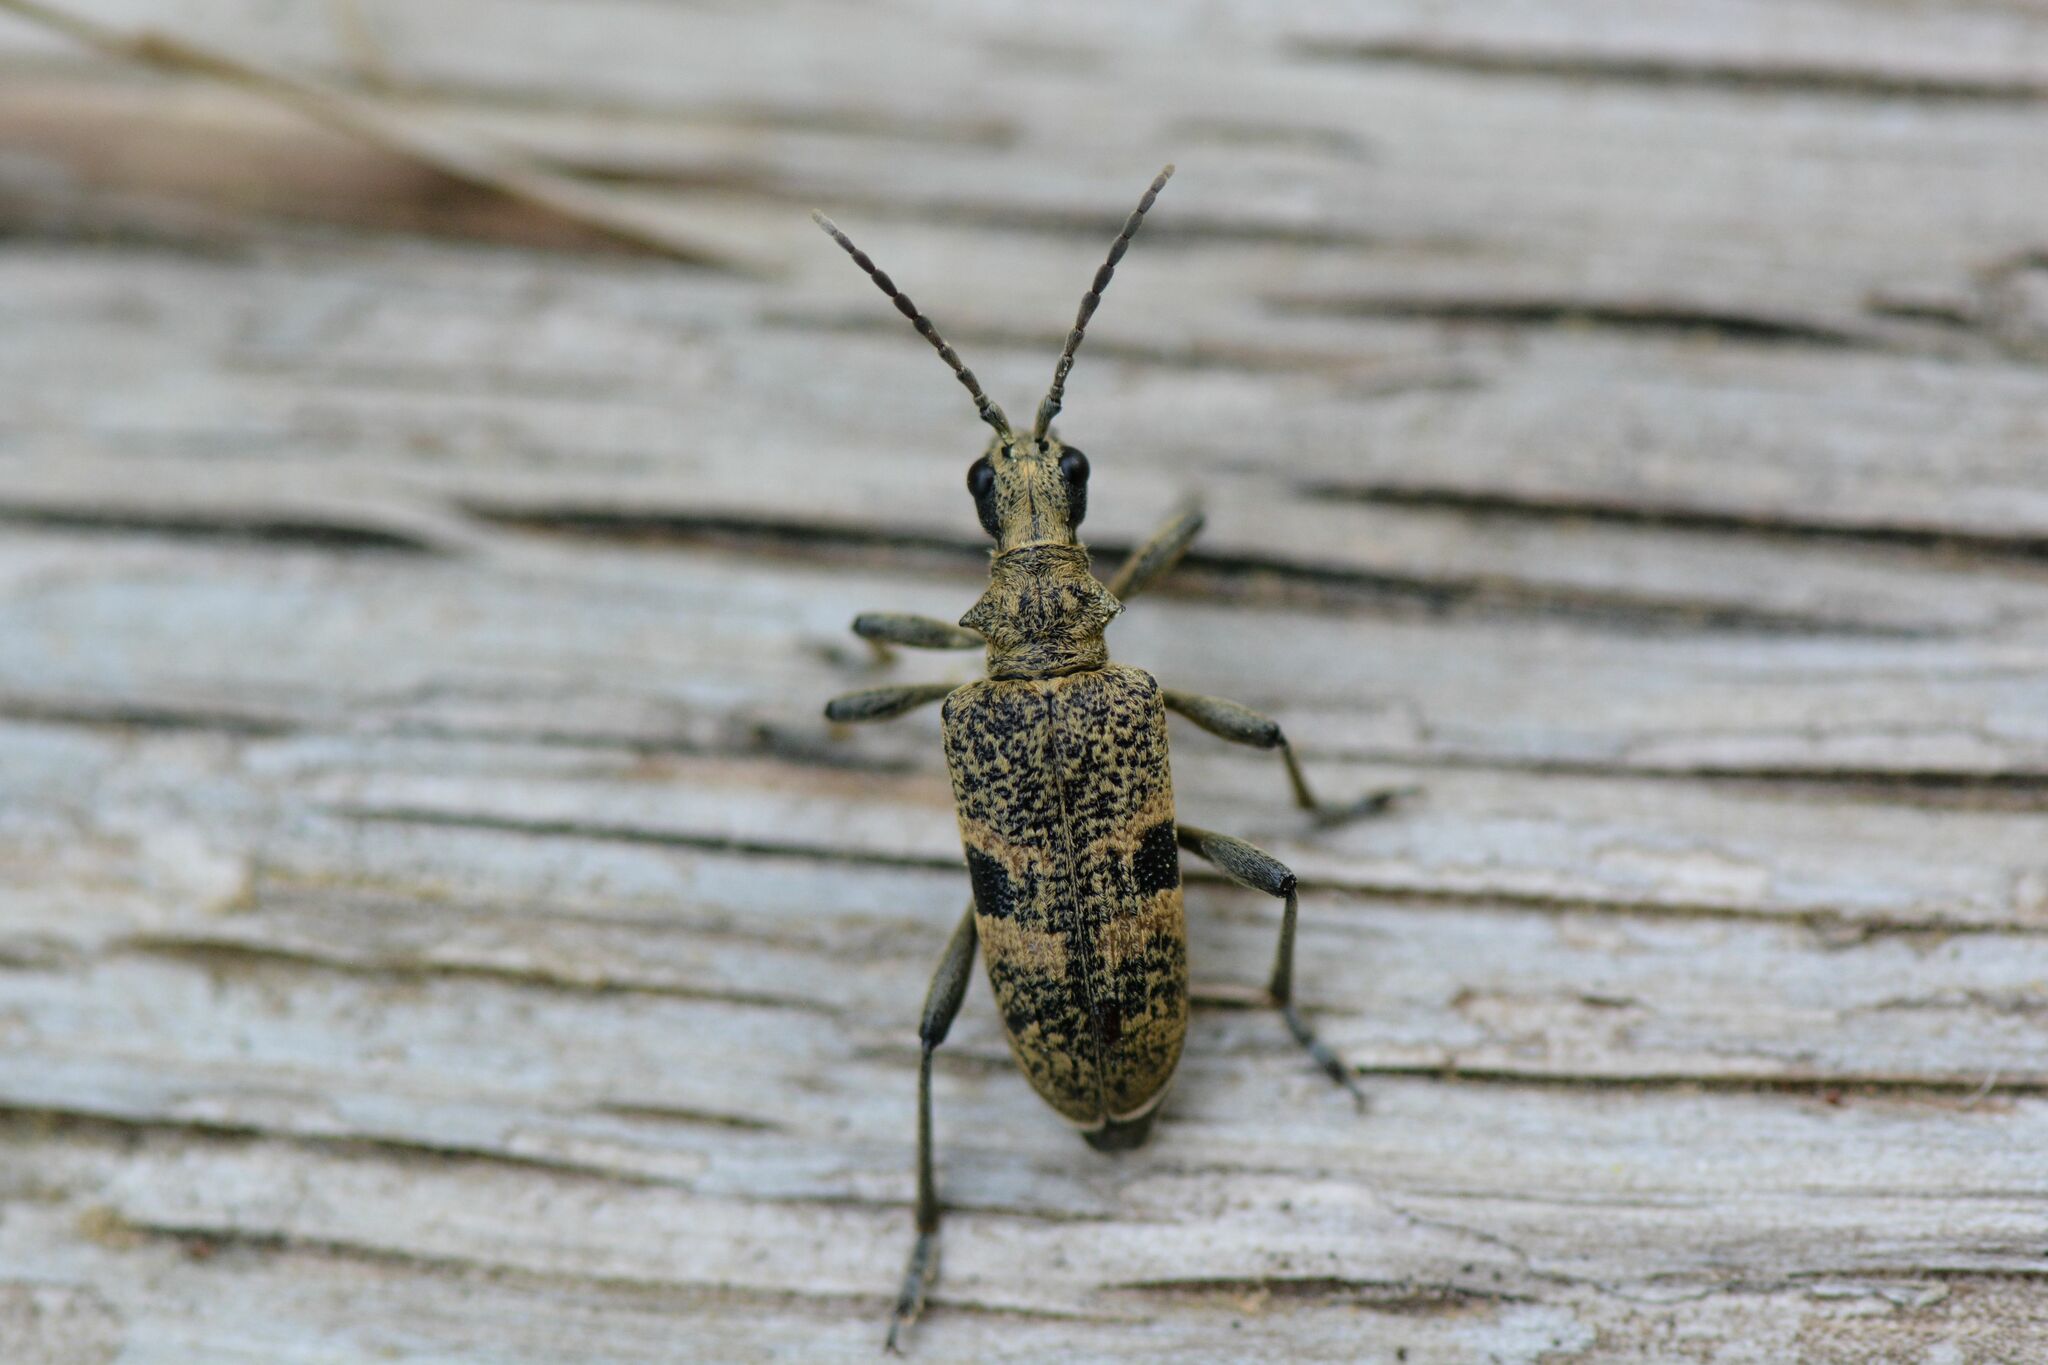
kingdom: Animalia
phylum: Arthropoda
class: Insecta
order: Coleoptera
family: Cerambycidae
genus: Rhagium
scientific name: Rhagium mordax
